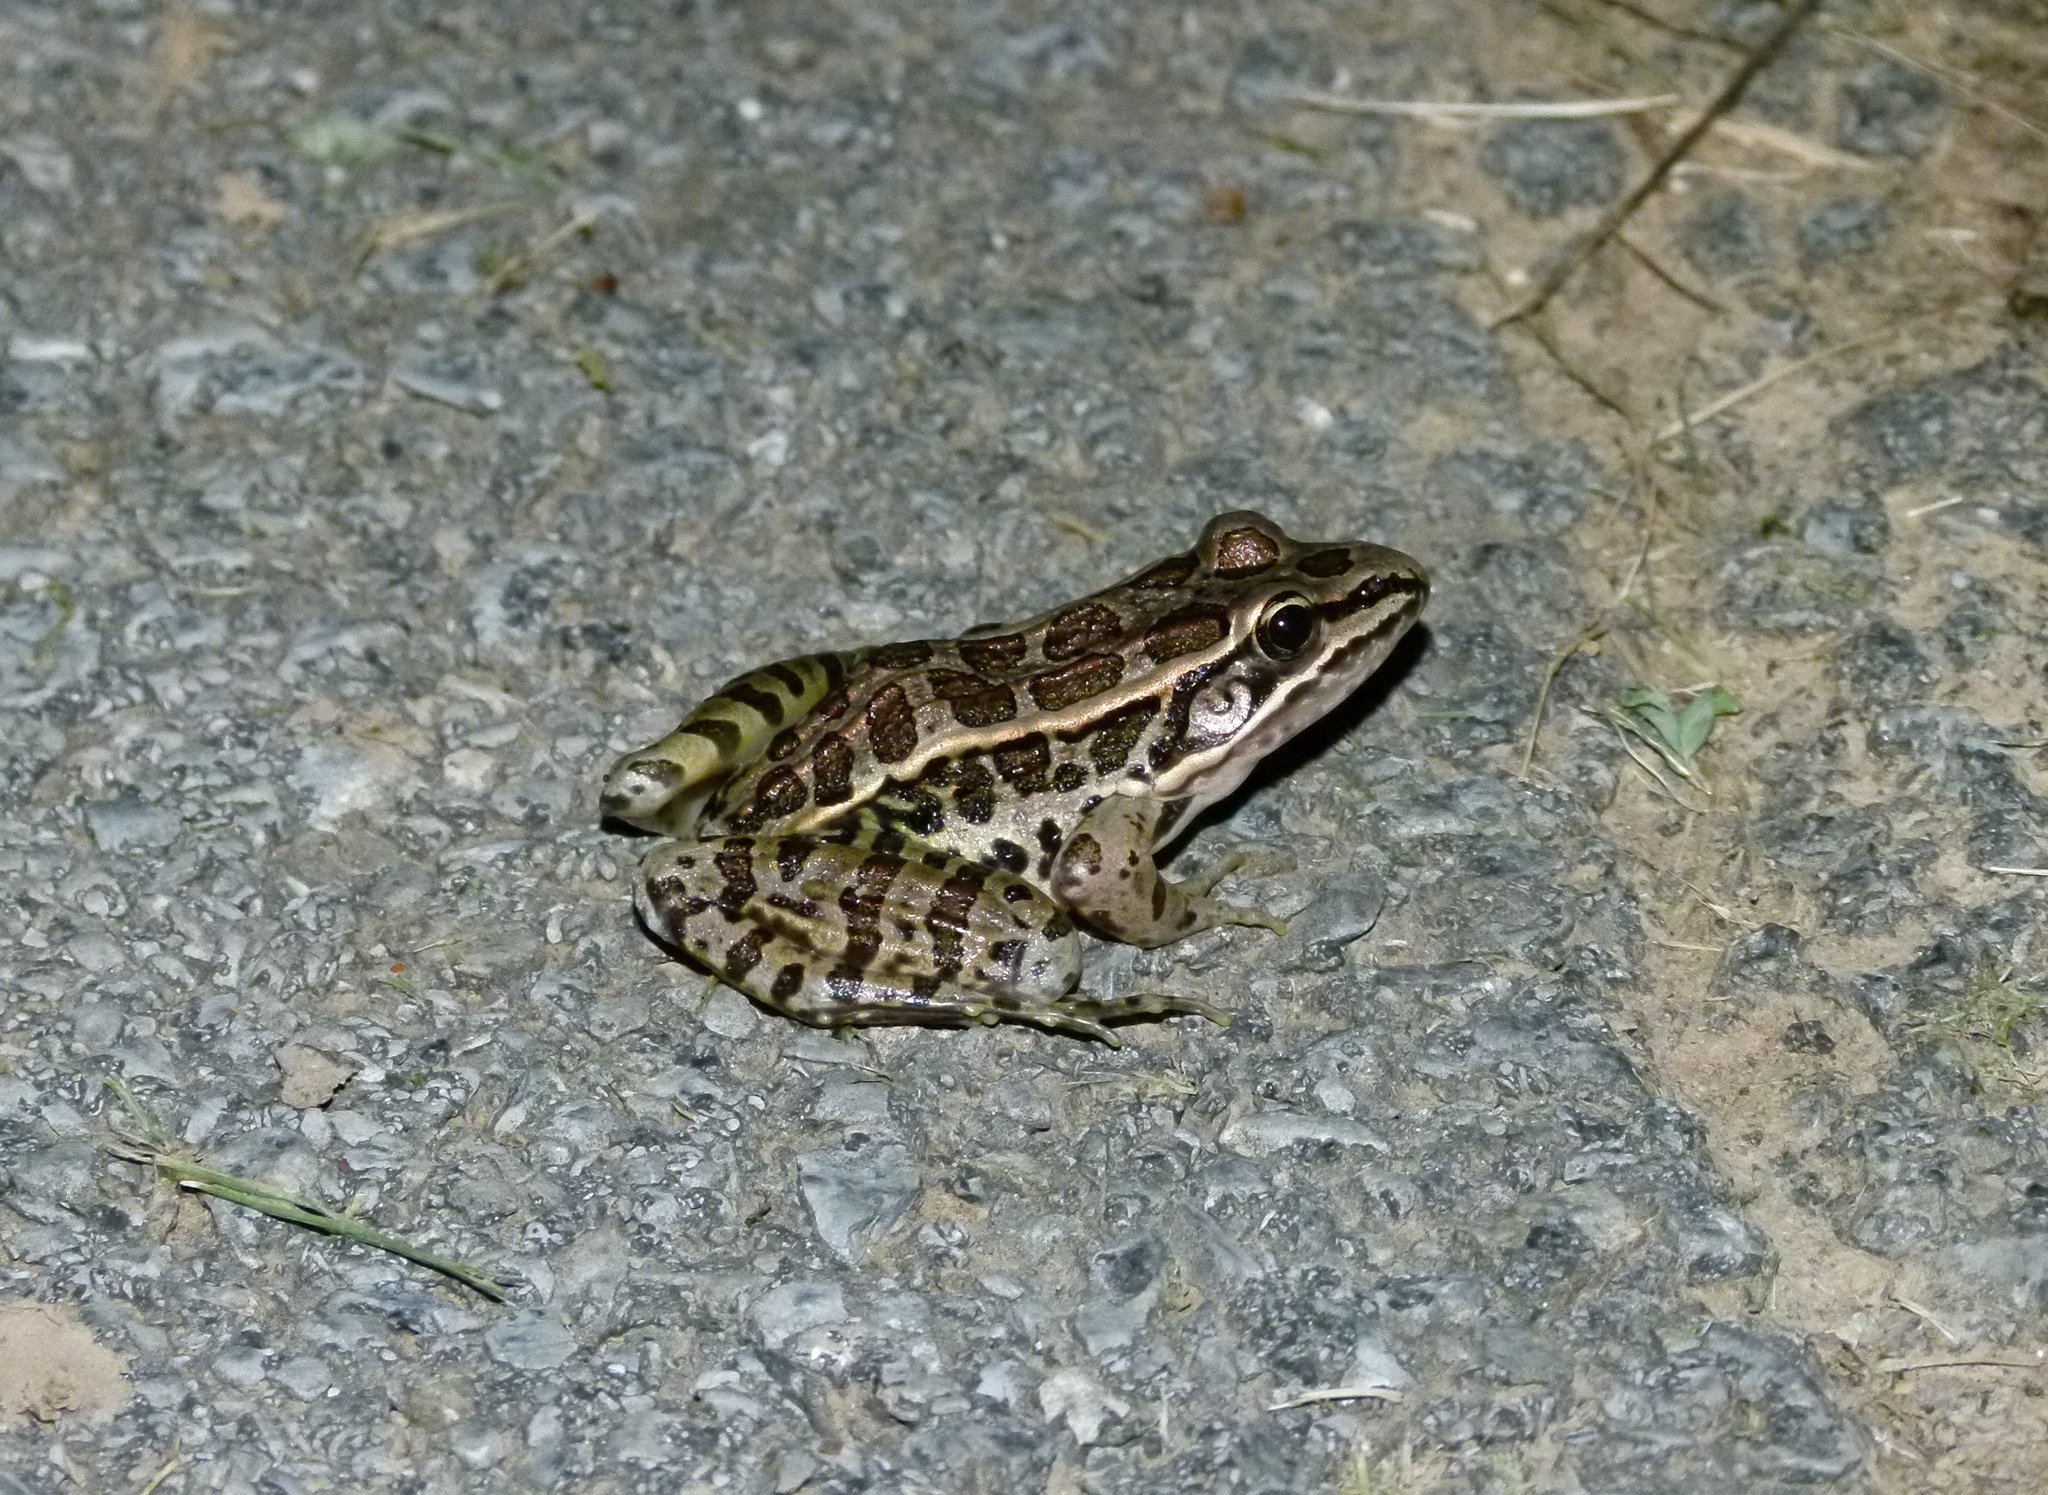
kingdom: Animalia
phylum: Chordata
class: Amphibia
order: Anura
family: Ranidae
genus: Lithobates
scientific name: Lithobates palustris
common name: Pickerel frog
